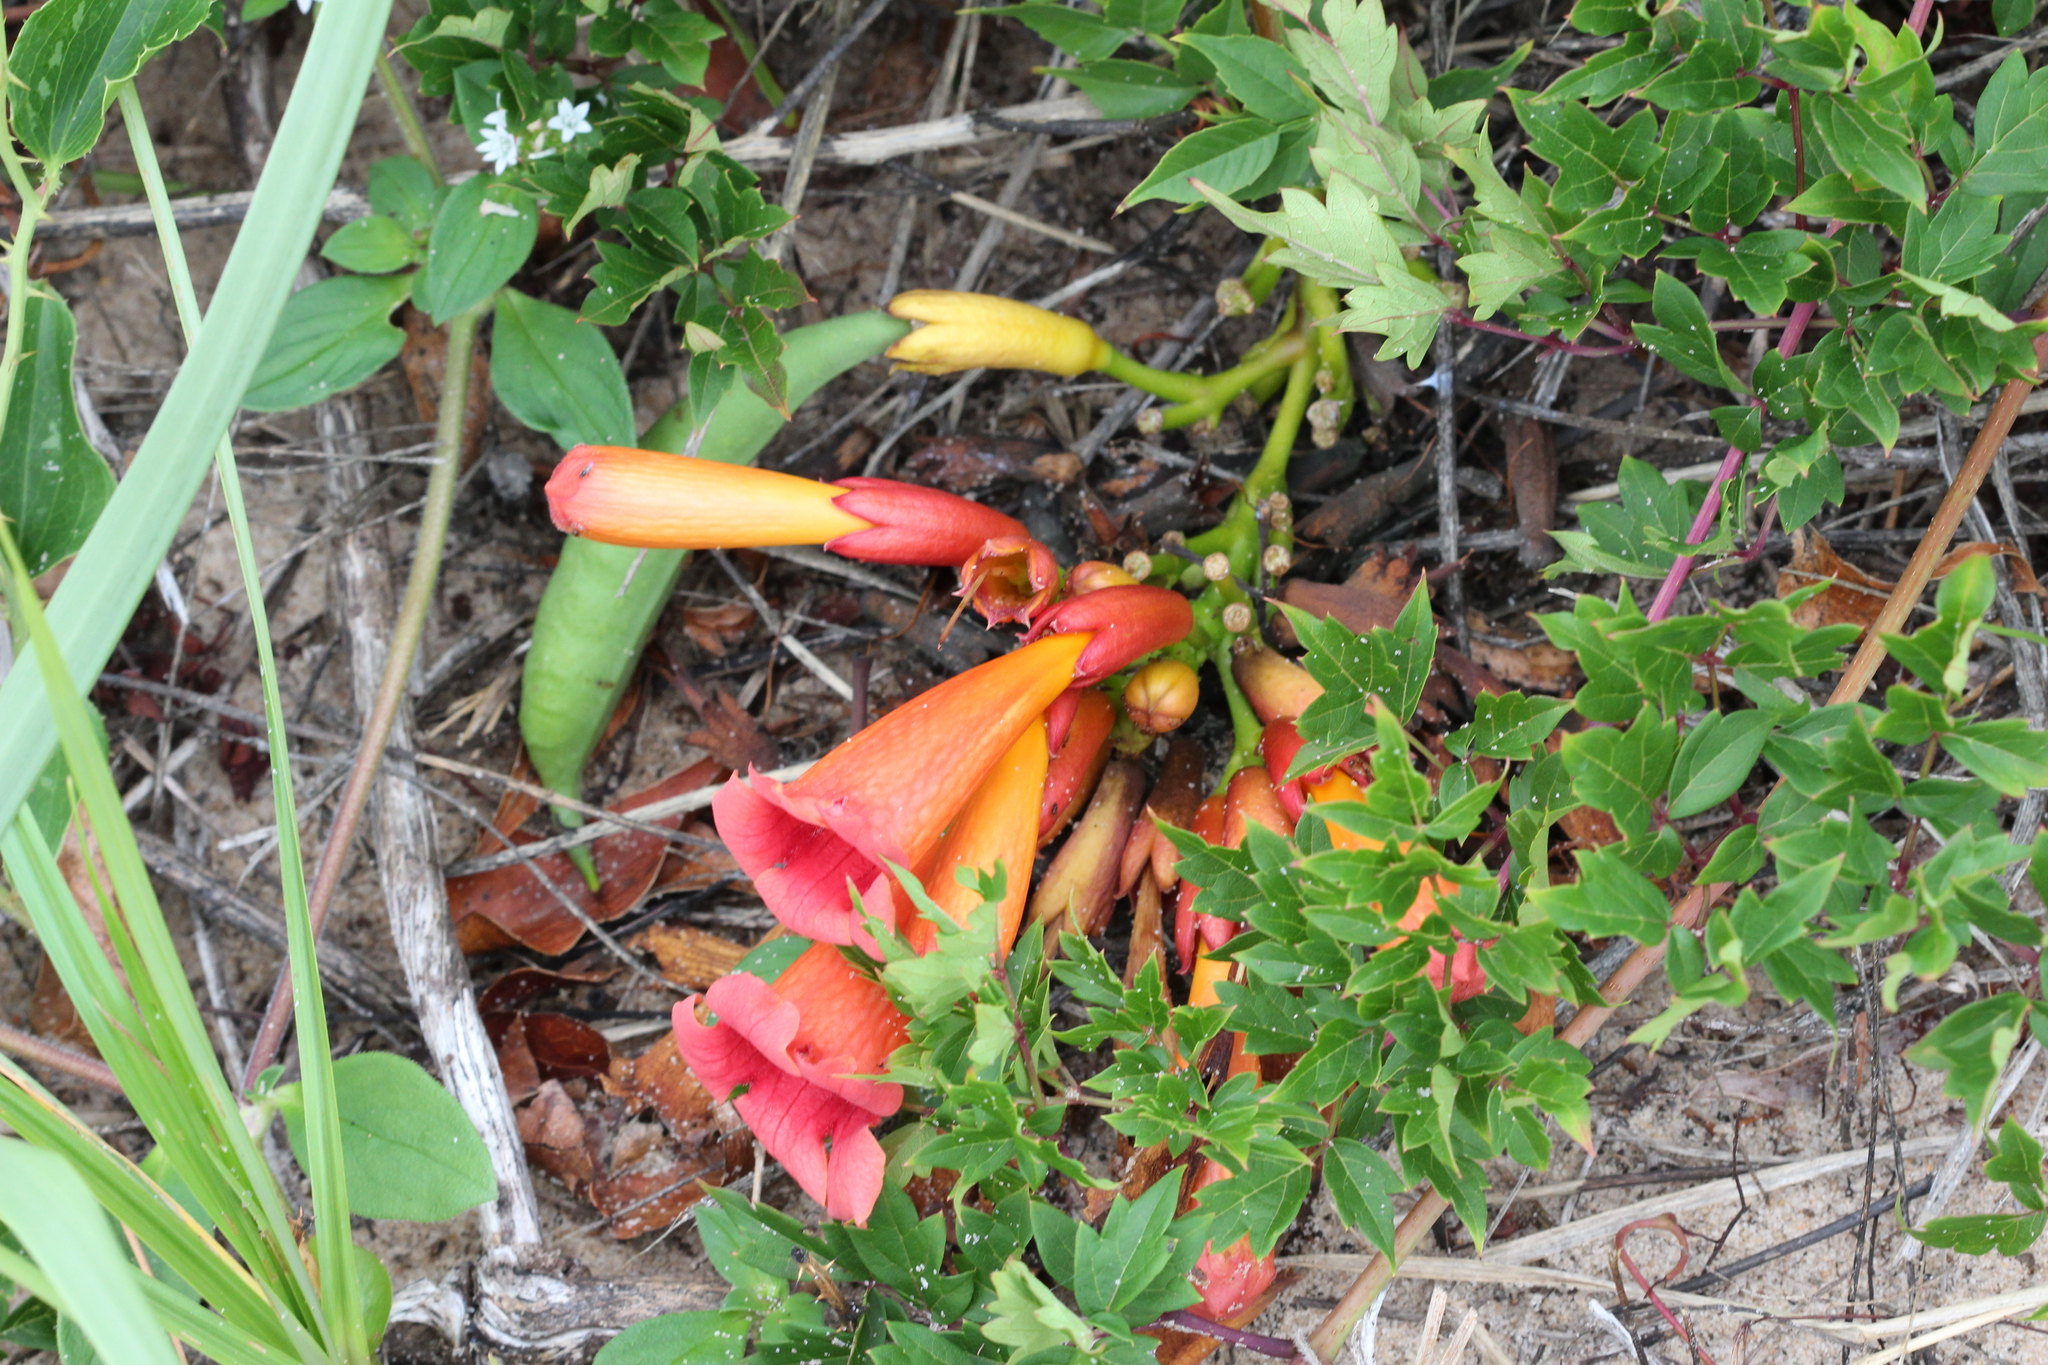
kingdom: Plantae
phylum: Tracheophyta
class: Magnoliopsida
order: Lamiales
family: Bignoniaceae
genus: Campsis
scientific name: Campsis radicans
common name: Trumpet-creeper
